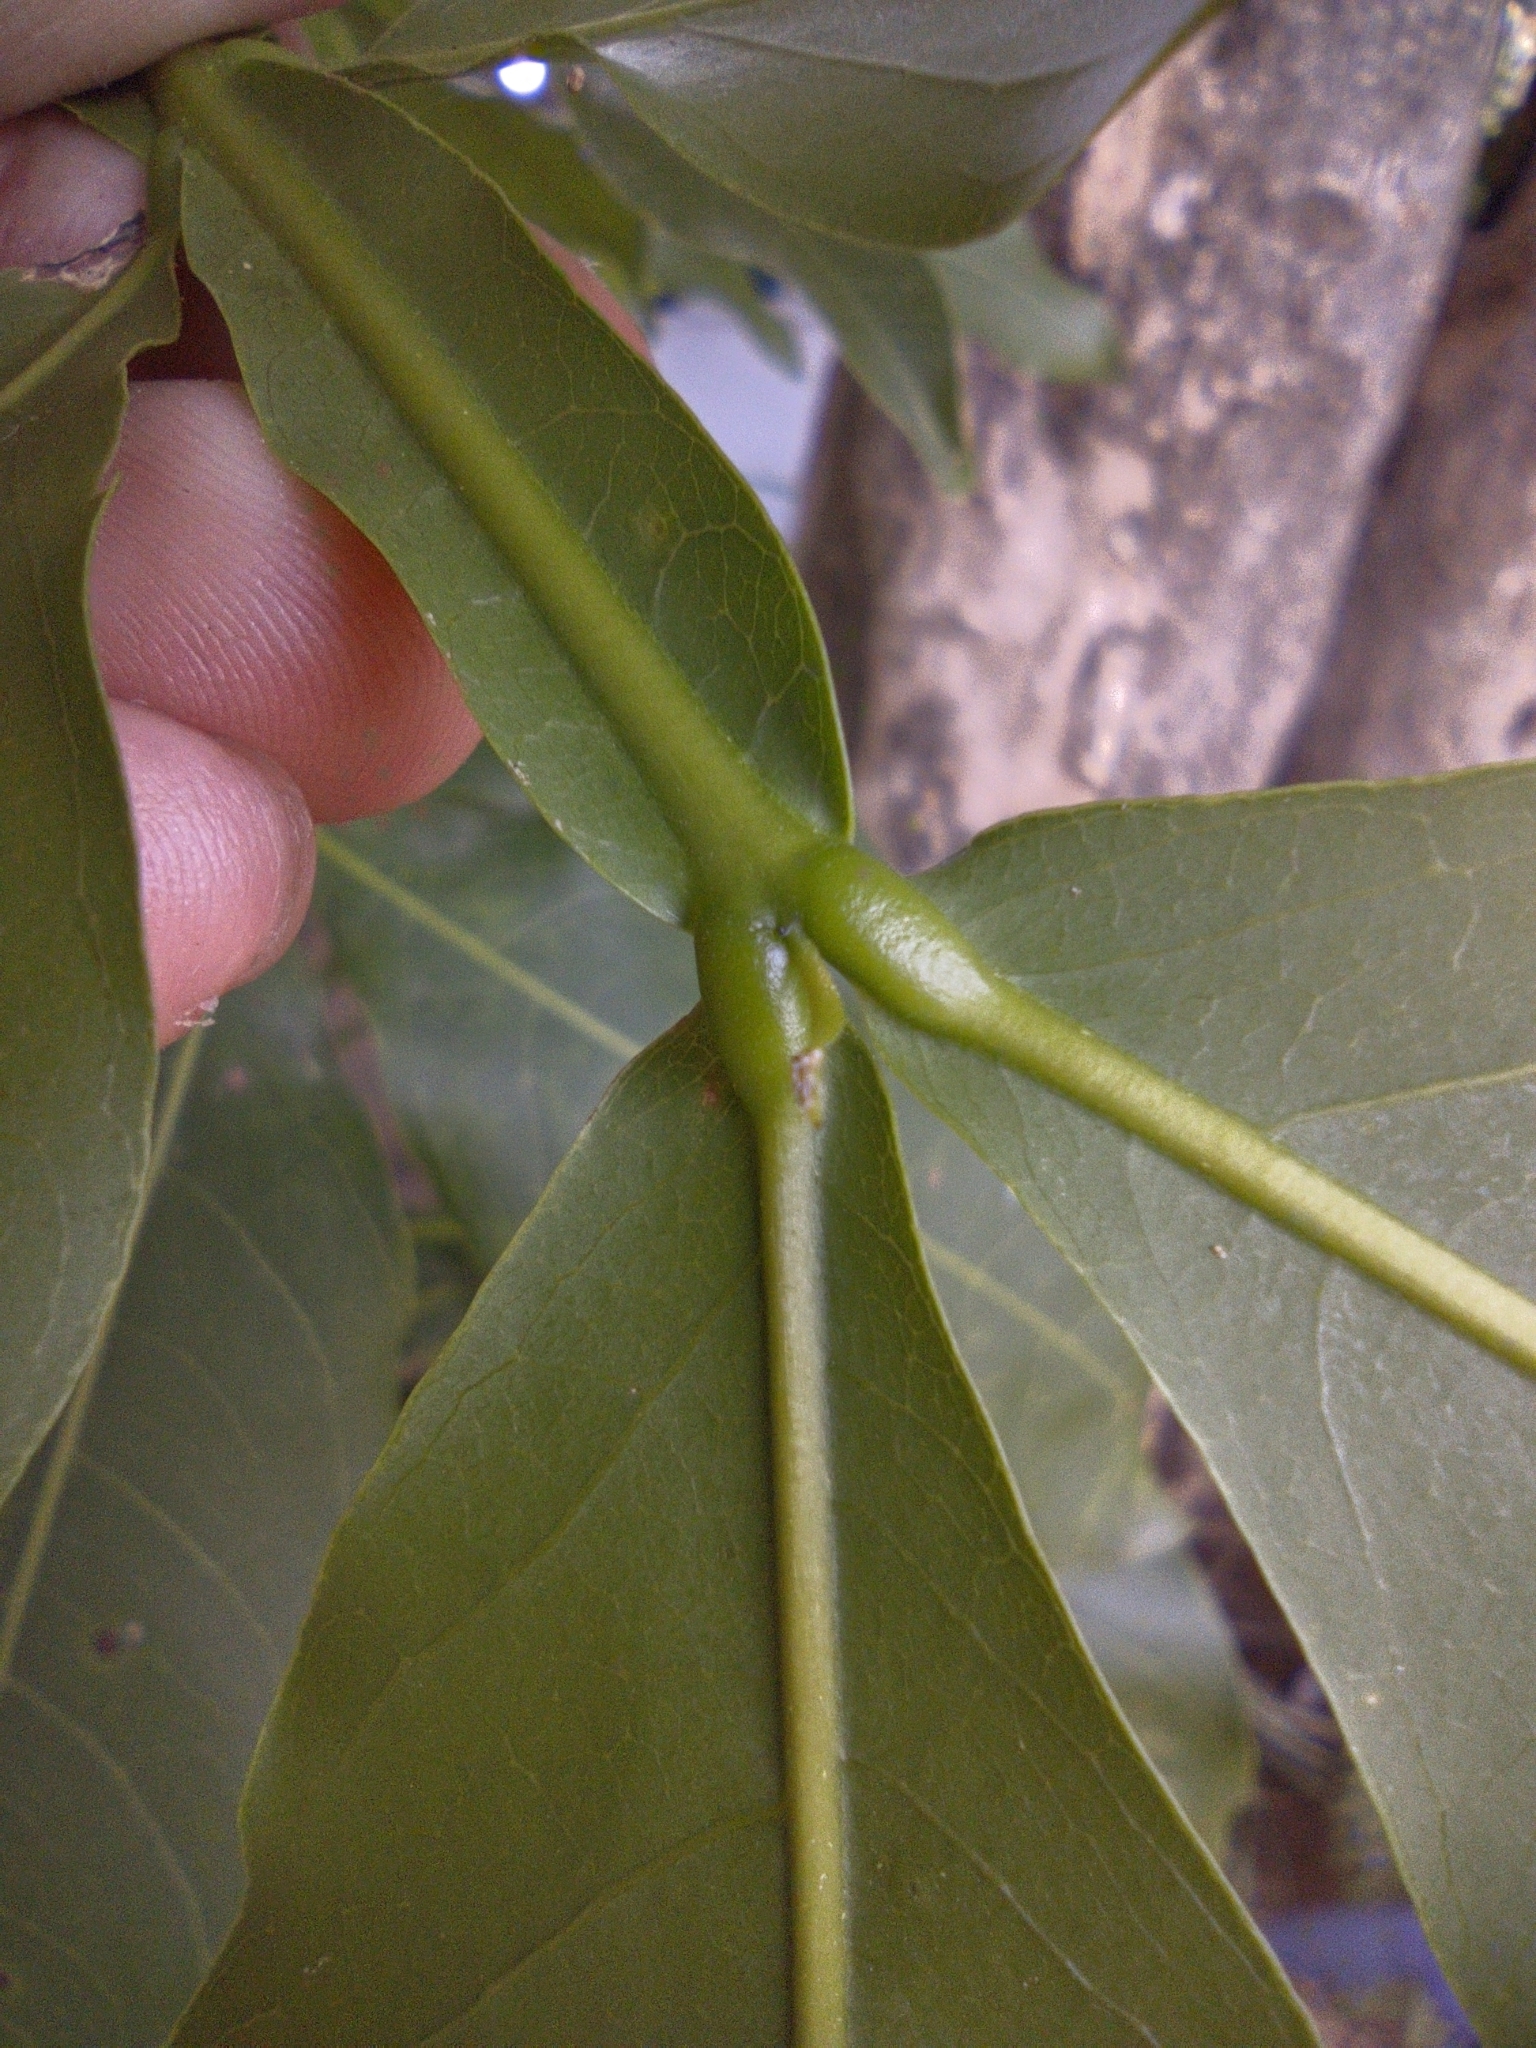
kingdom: Plantae
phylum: Tracheophyta
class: Magnoliopsida
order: Sapindales
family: Sapindaceae
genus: Melicoccus
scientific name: Melicoccus bijugatus
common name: Spanish lime
